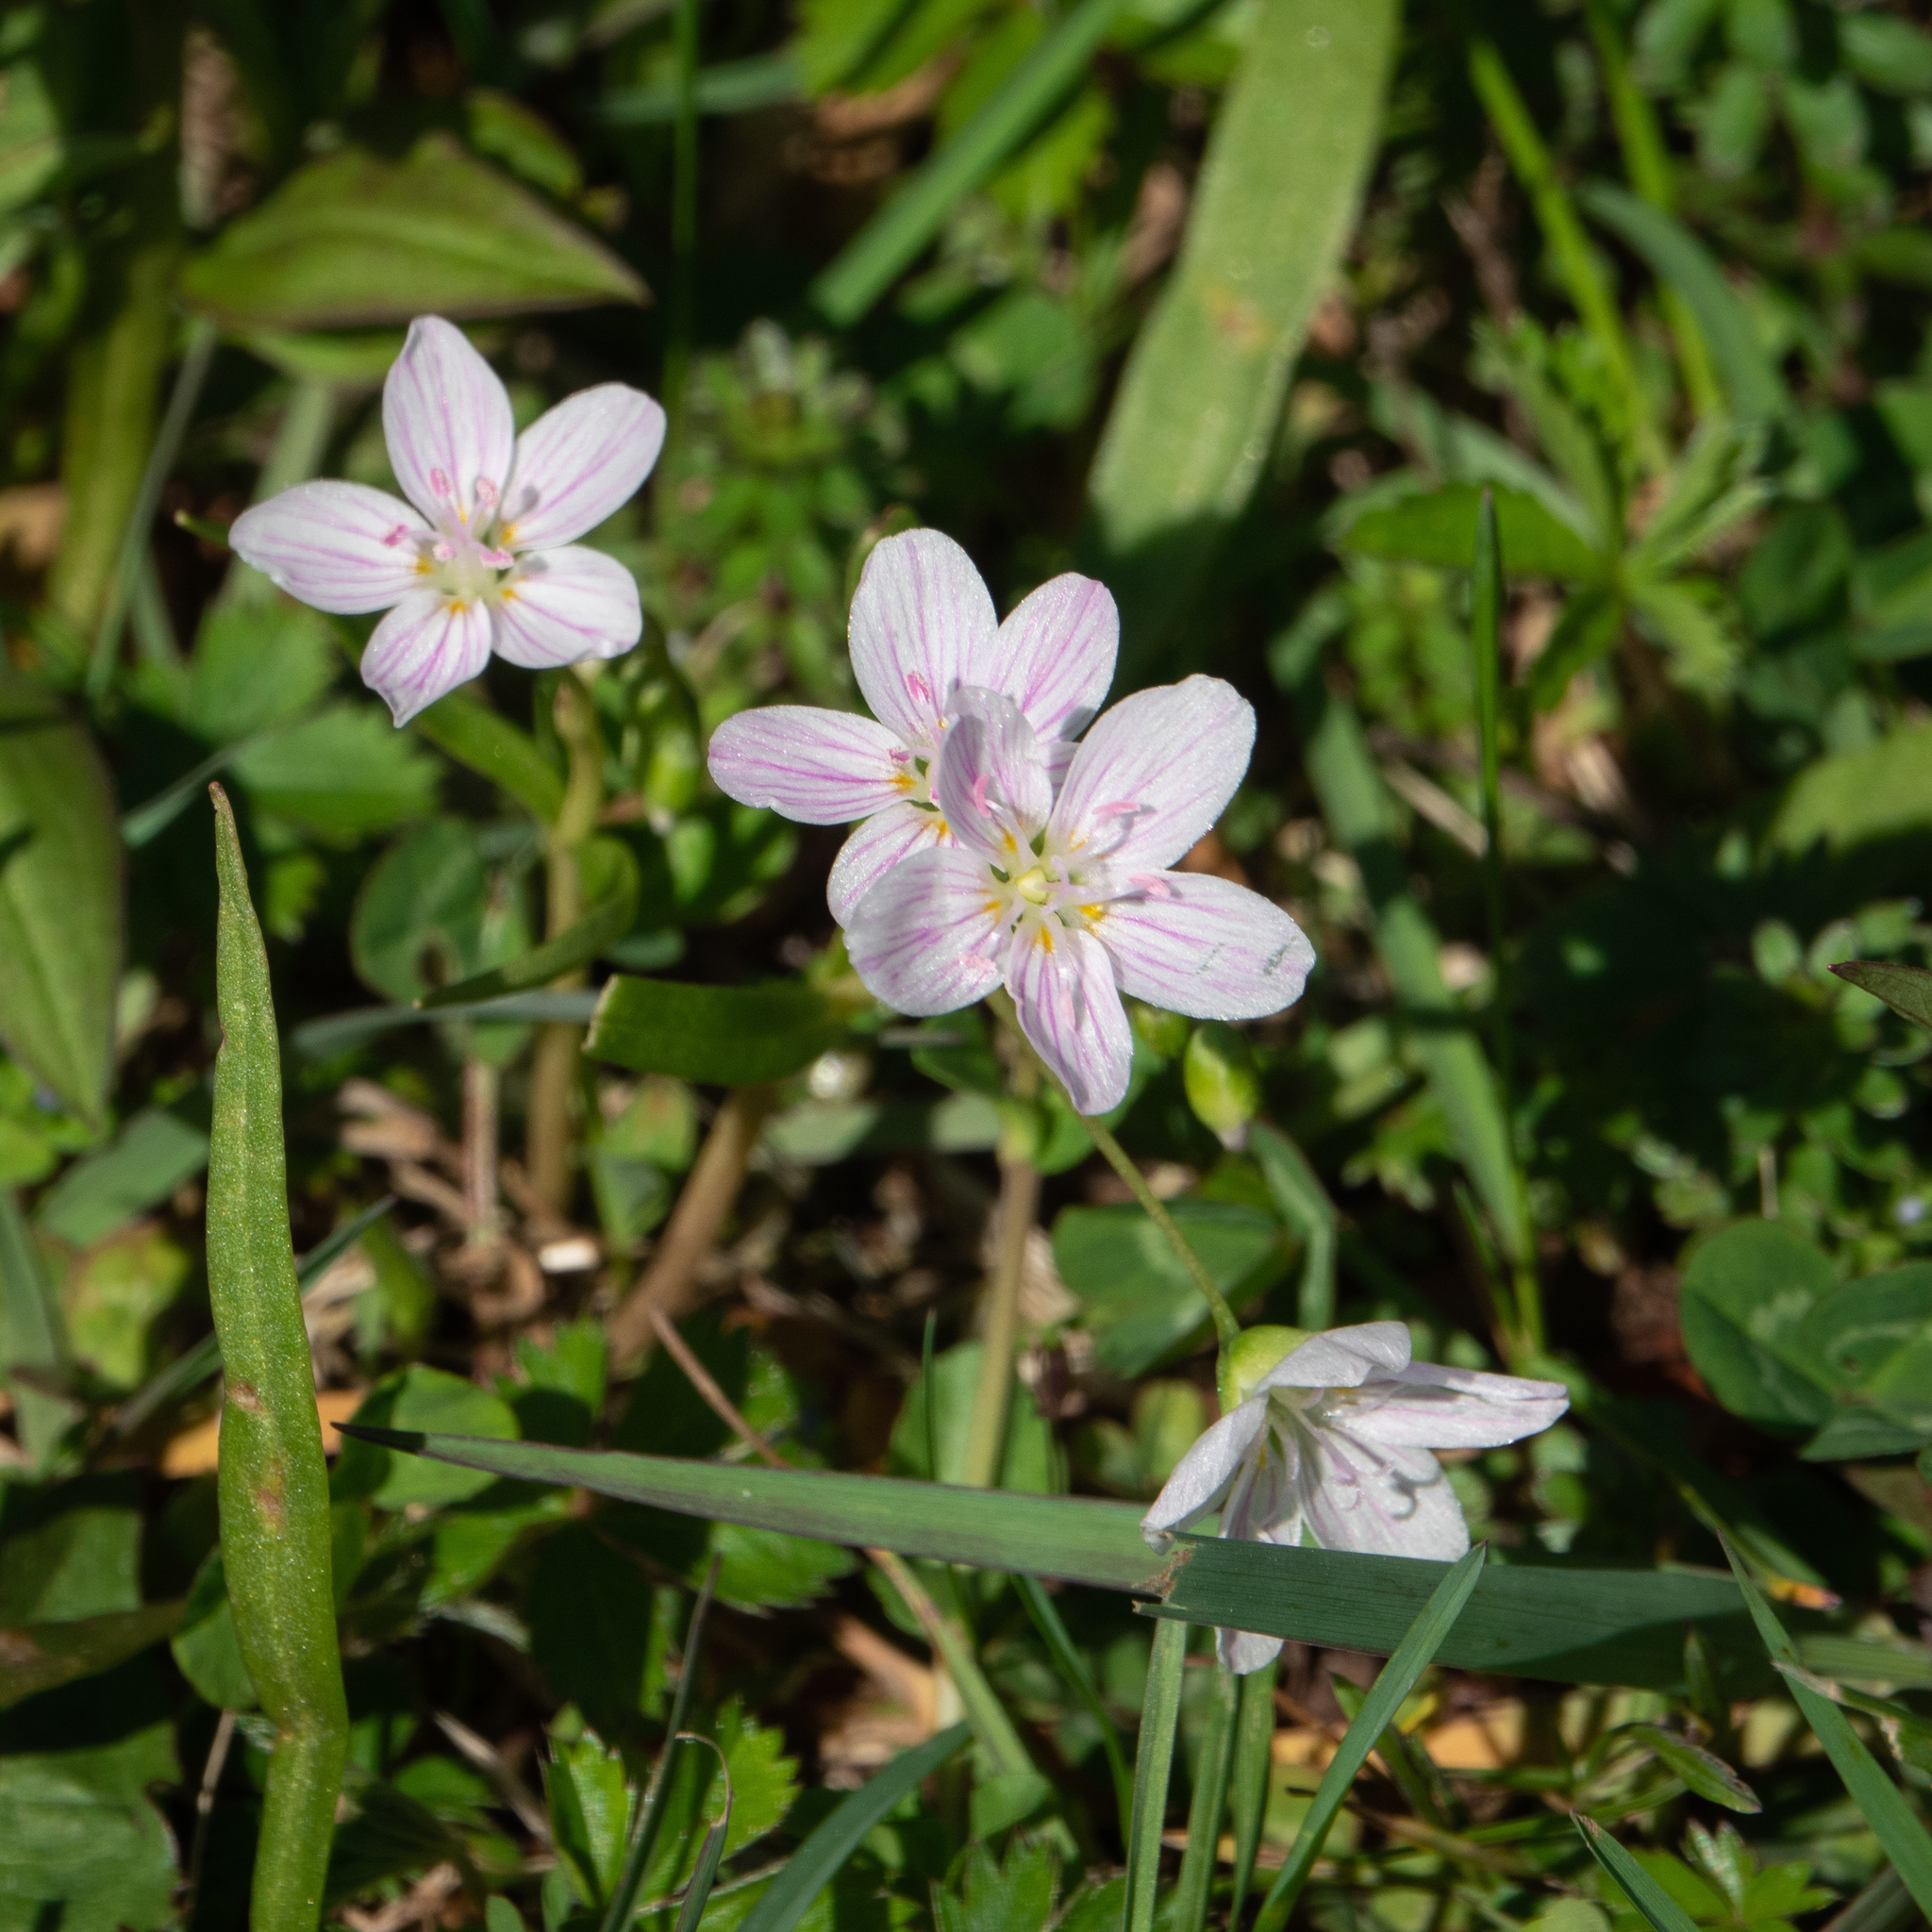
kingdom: Plantae
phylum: Tracheophyta
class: Magnoliopsida
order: Caryophyllales
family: Montiaceae
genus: Claytonia
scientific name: Claytonia virginica
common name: Virginia springbeauty
